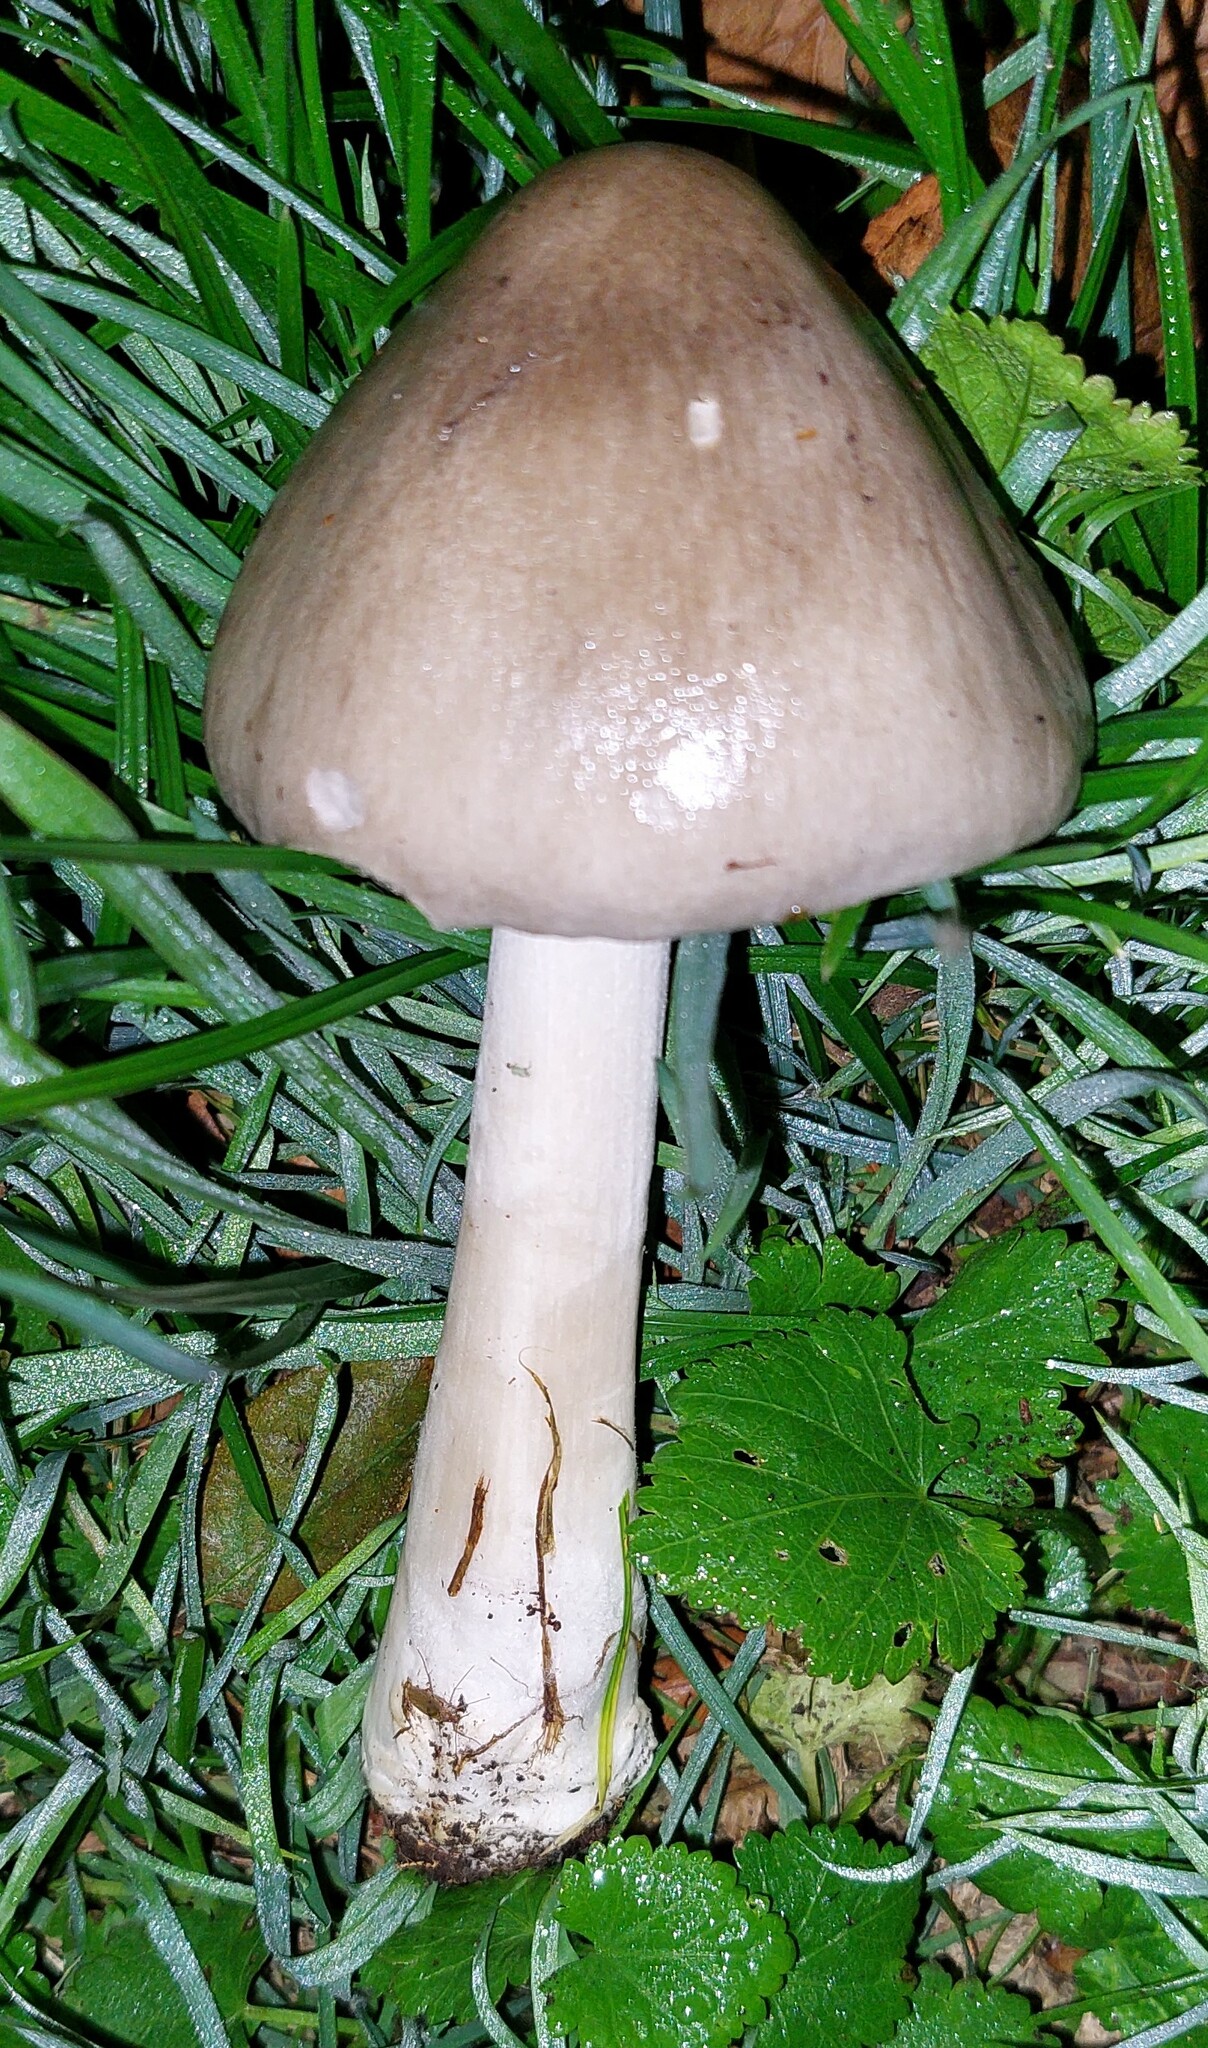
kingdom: Fungi
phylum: Basidiomycota
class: Agaricomycetes
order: Agaricales
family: Pluteaceae
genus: Volvopluteus
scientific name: Volvopluteus gloiocephalus
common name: Stubble rosegill
